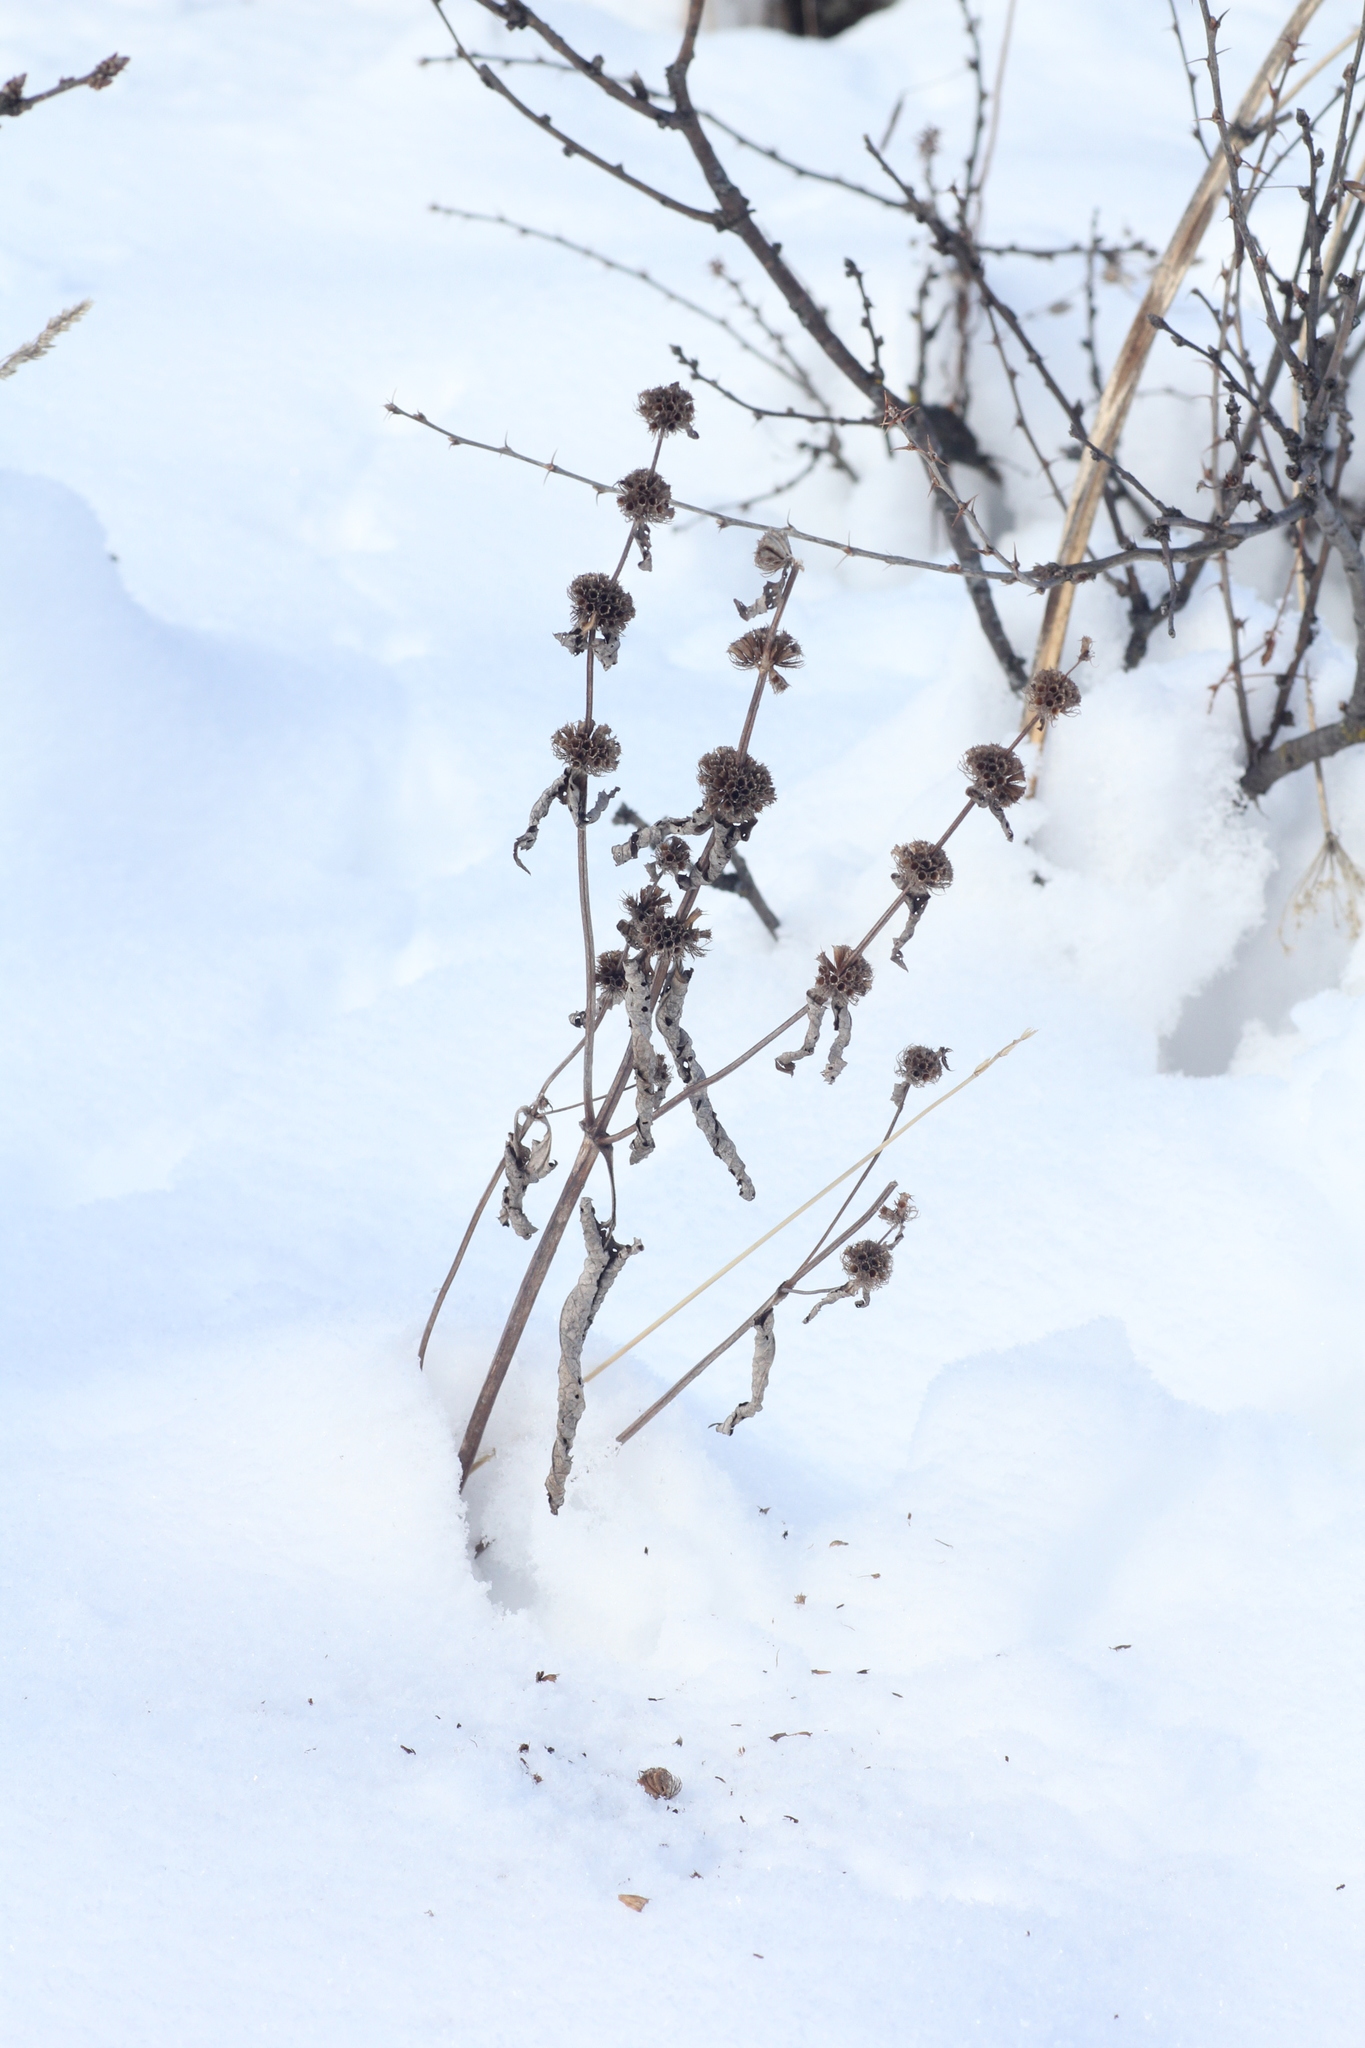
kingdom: Plantae
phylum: Tracheophyta
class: Magnoliopsida
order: Lamiales
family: Lamiaceae
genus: Phlomoides
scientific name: Phlomoides tuberosa
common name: Tuberous jerusalem sage
